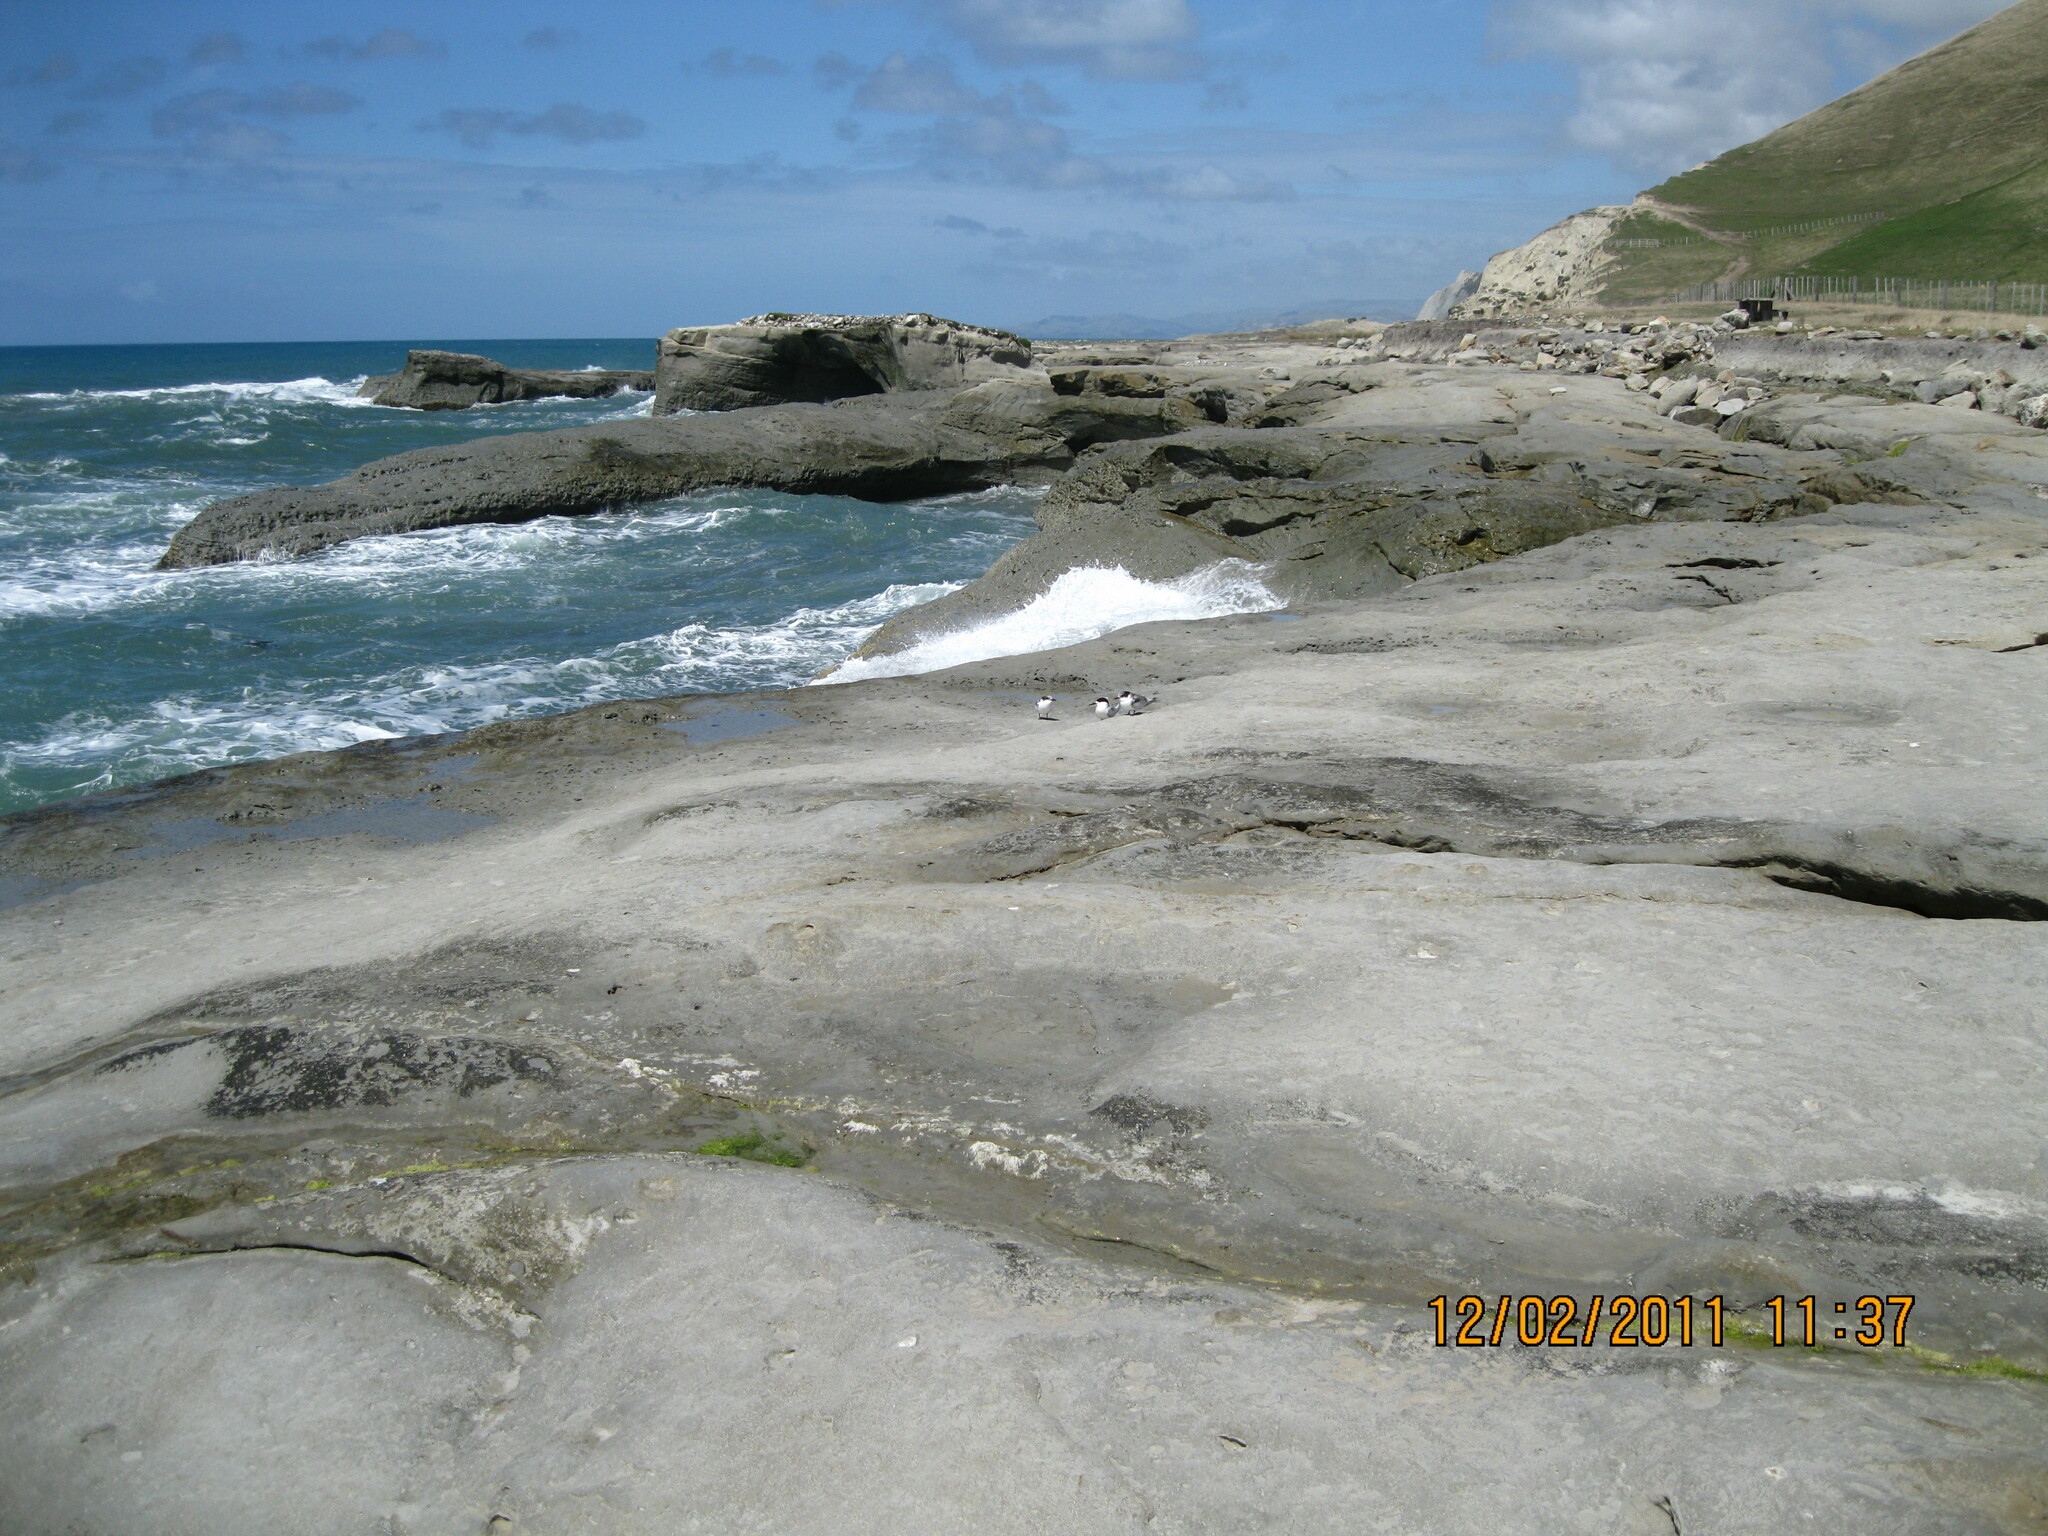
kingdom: Animalia
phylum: Chordata
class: Aves
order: Charadriiformes
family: Laridae
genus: Sterna
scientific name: Sterna striata
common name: White-fronted tern
